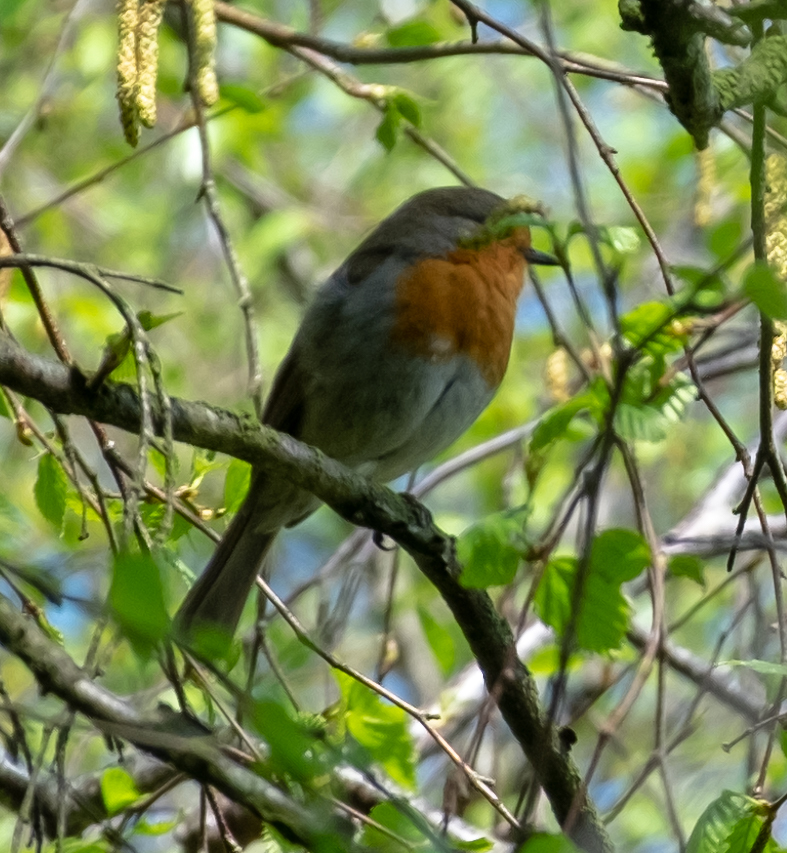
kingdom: Animalia
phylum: Chordata
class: Aves
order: Passeriformes
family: Muscicapidae
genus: Erithacus
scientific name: Erithacus rubecula
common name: European robin
